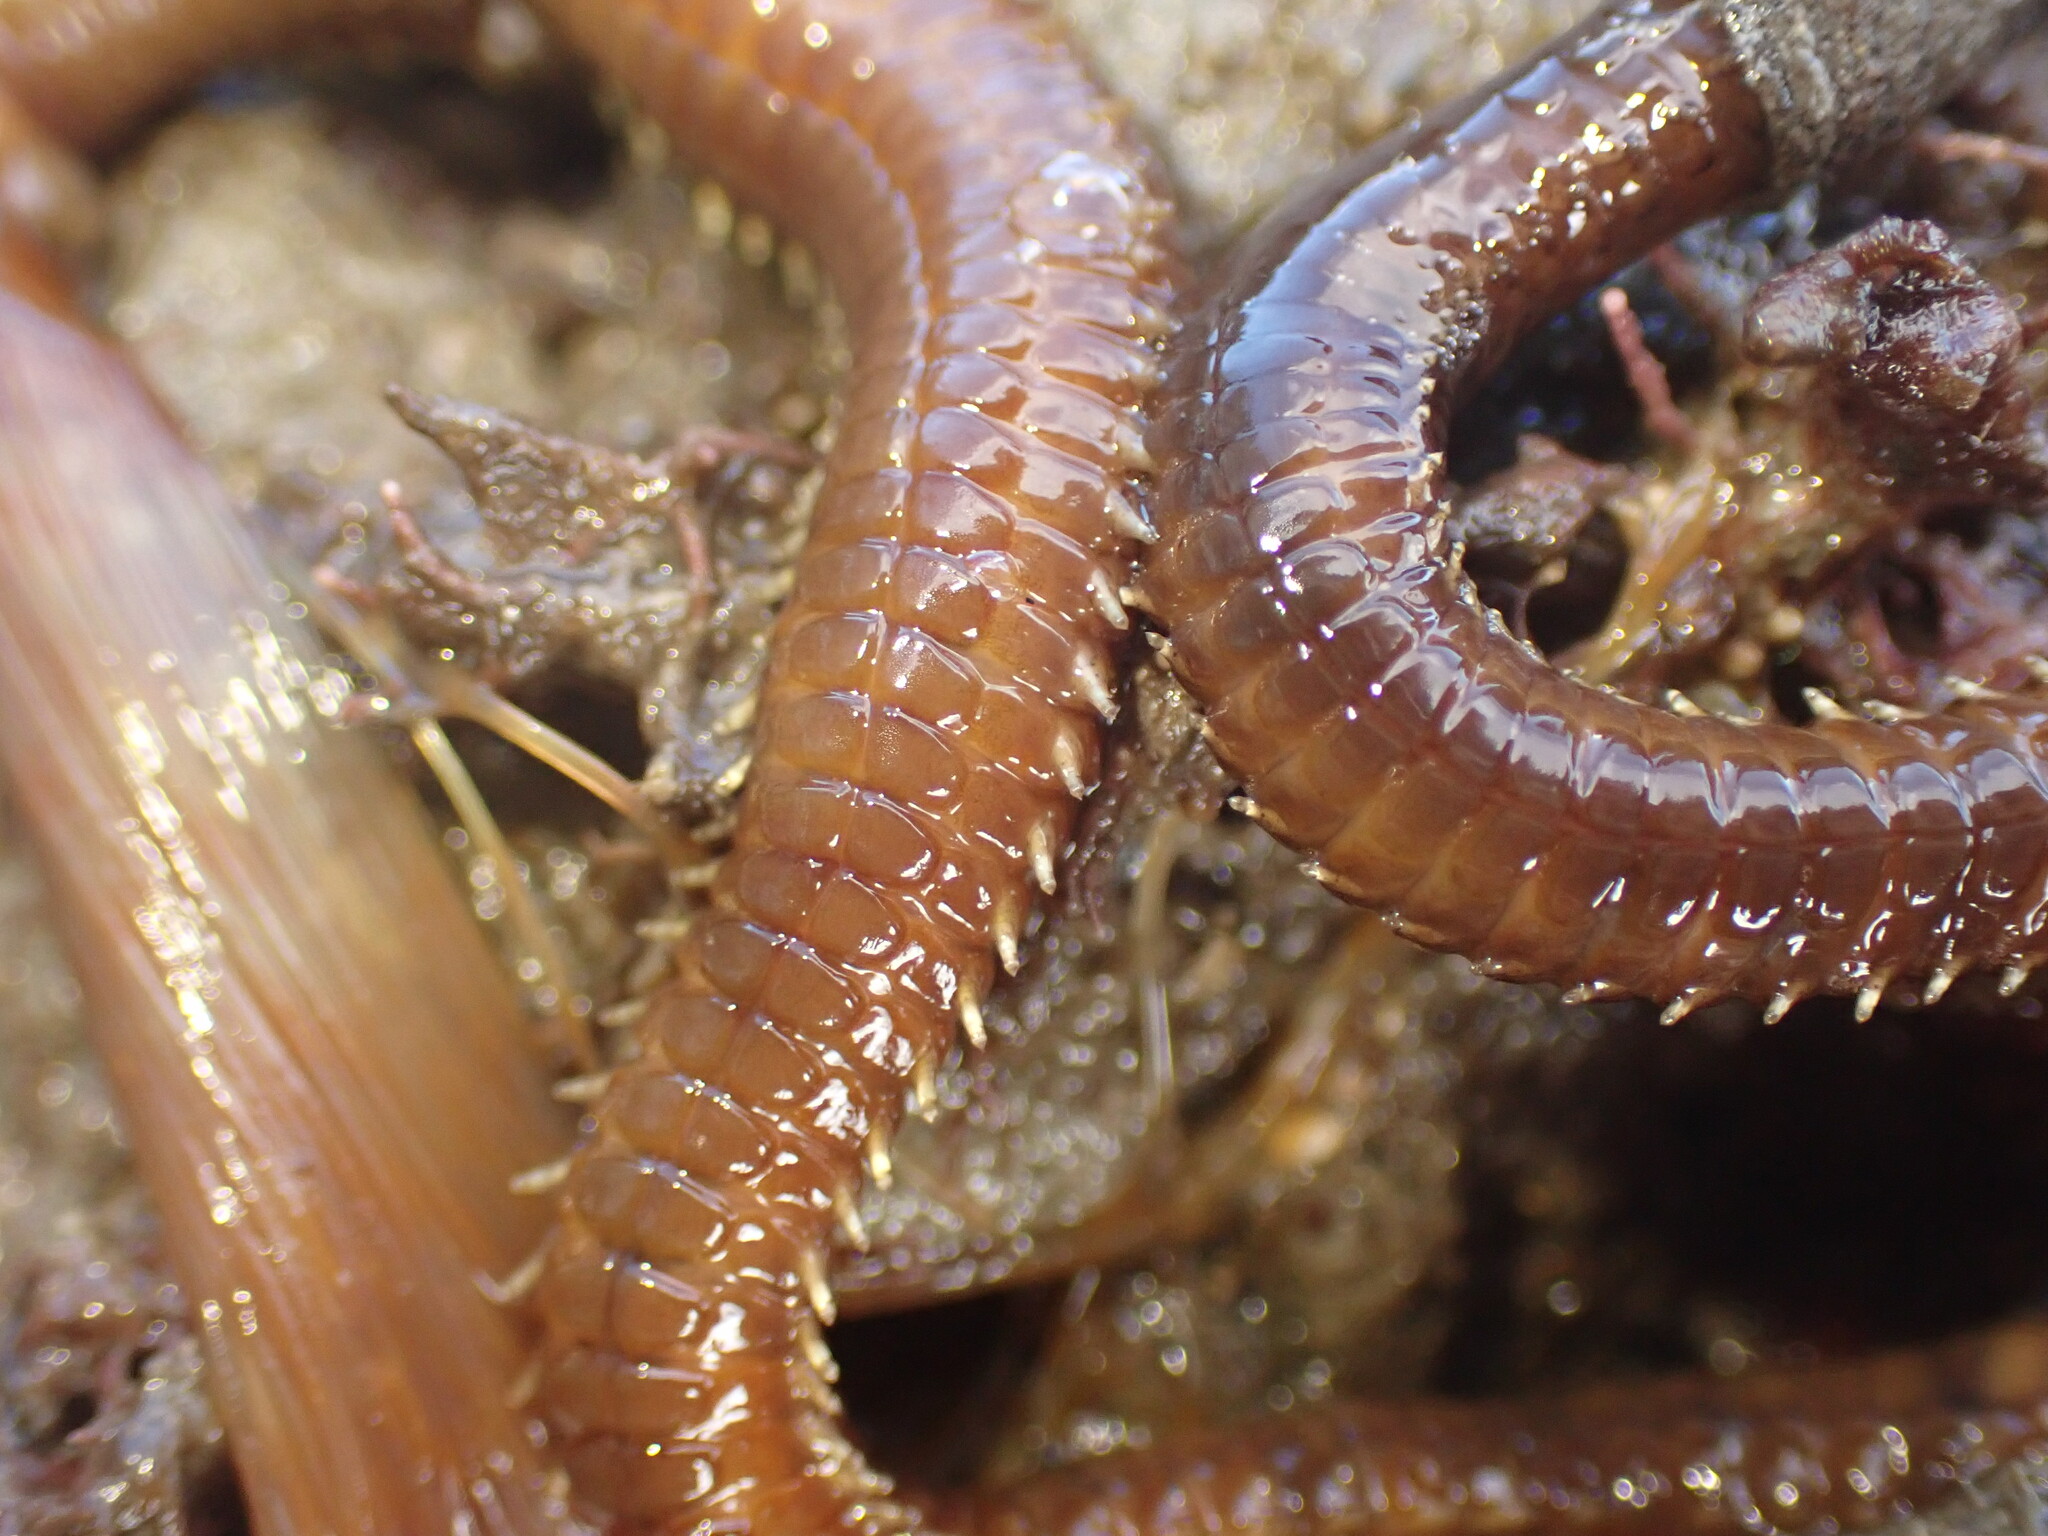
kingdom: Animalia
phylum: Annelida
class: Polychaeta
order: Sabellida
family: Sabellidae
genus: Sabella
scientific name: Sabella spallanzanii
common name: Feather duster worm
